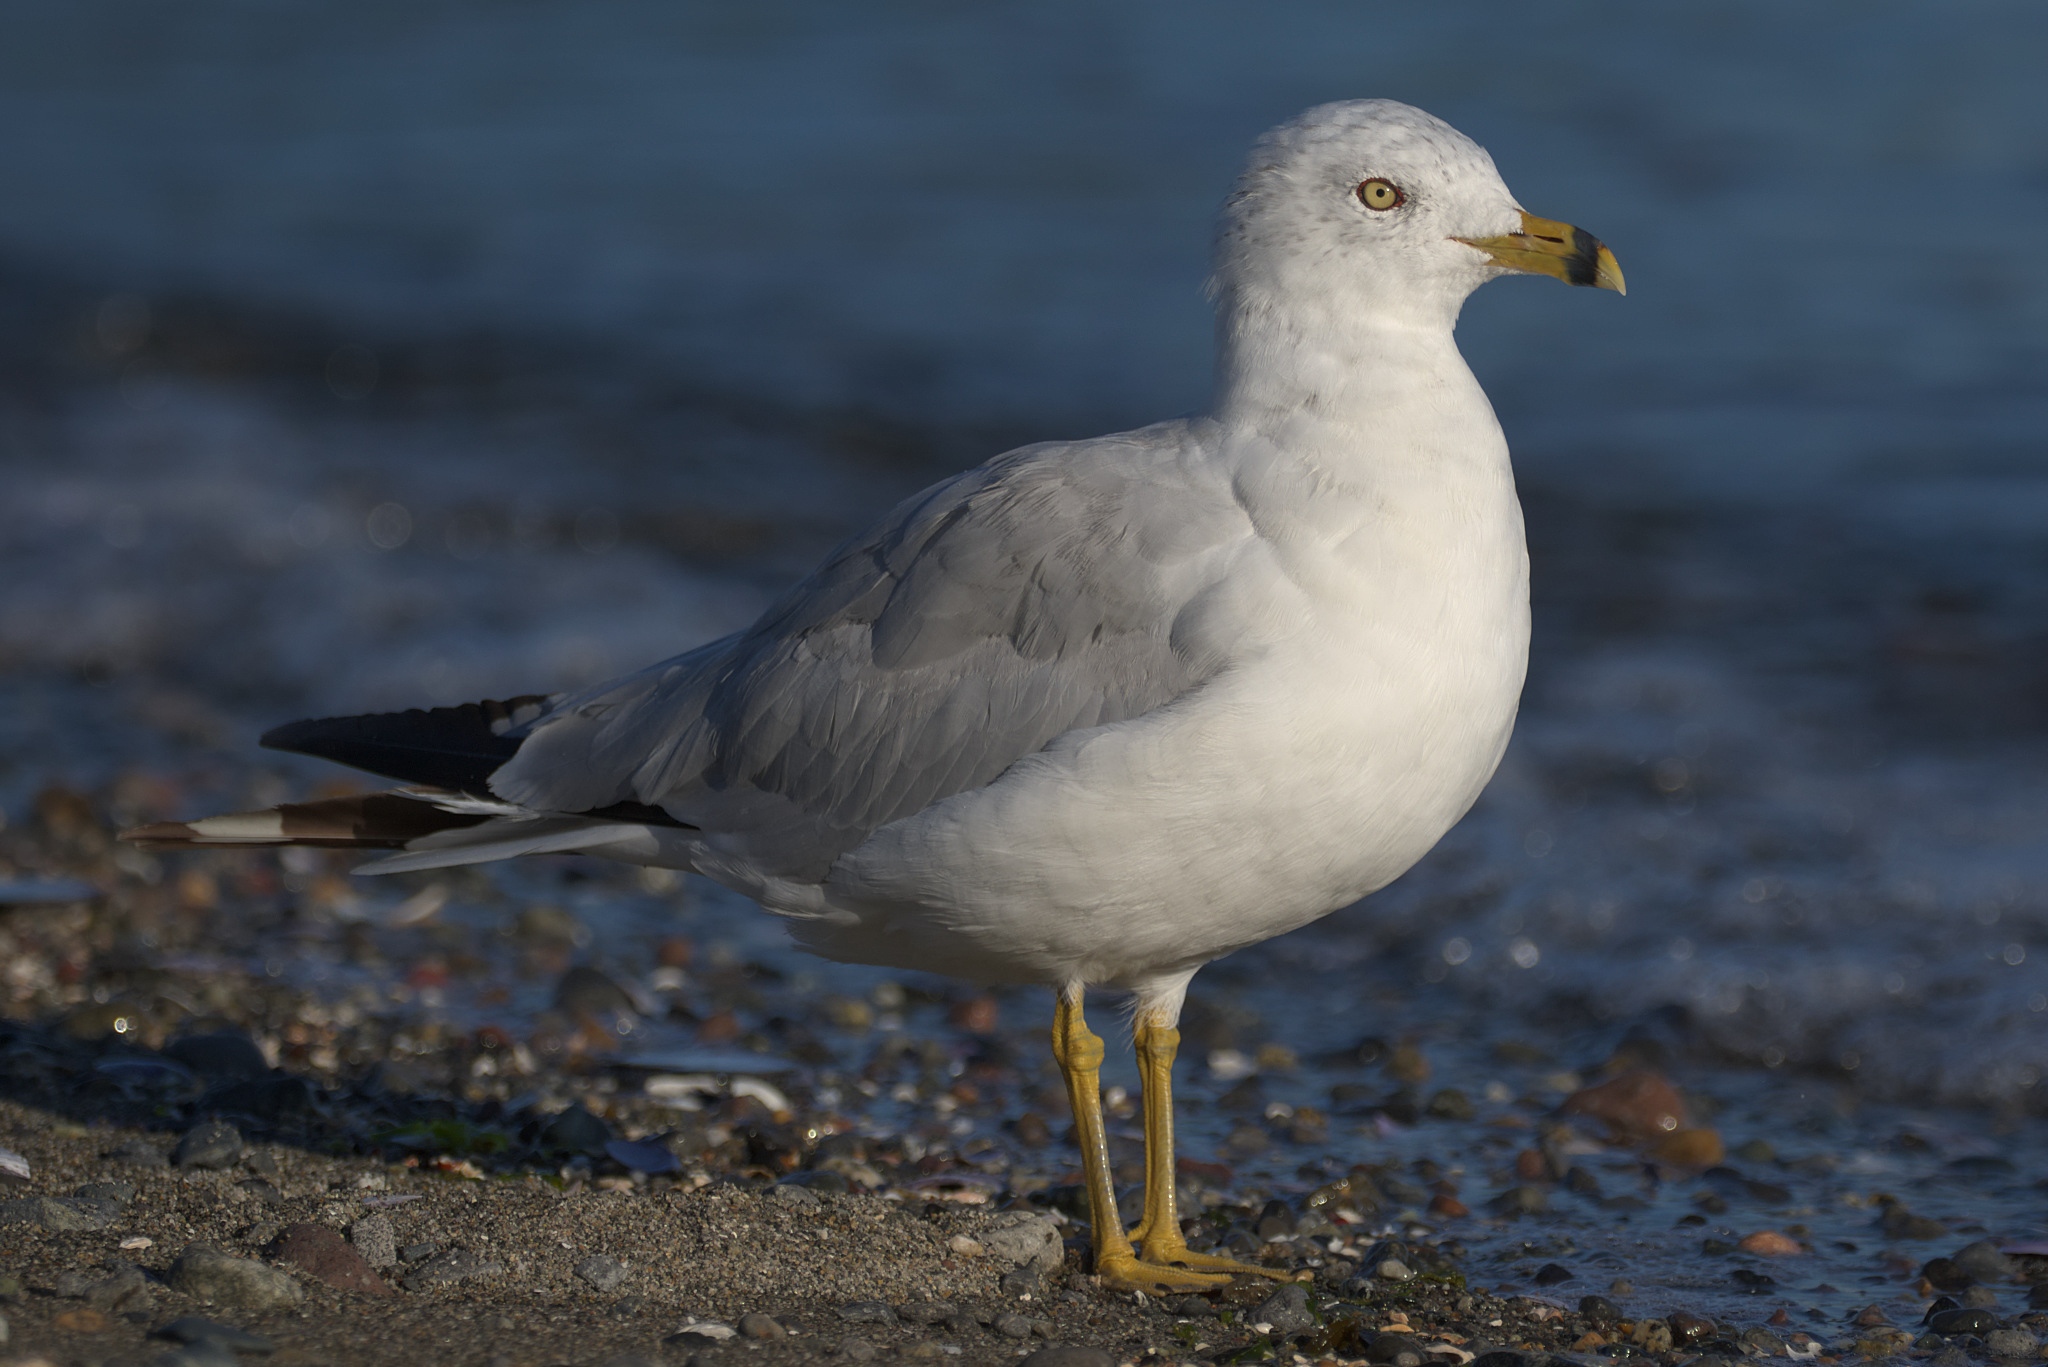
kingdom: Animalia
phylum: Chordata
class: Aves
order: Charadriiformes
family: Laridae
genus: Larus
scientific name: Larus delawarensis
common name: Ring-billed gull
